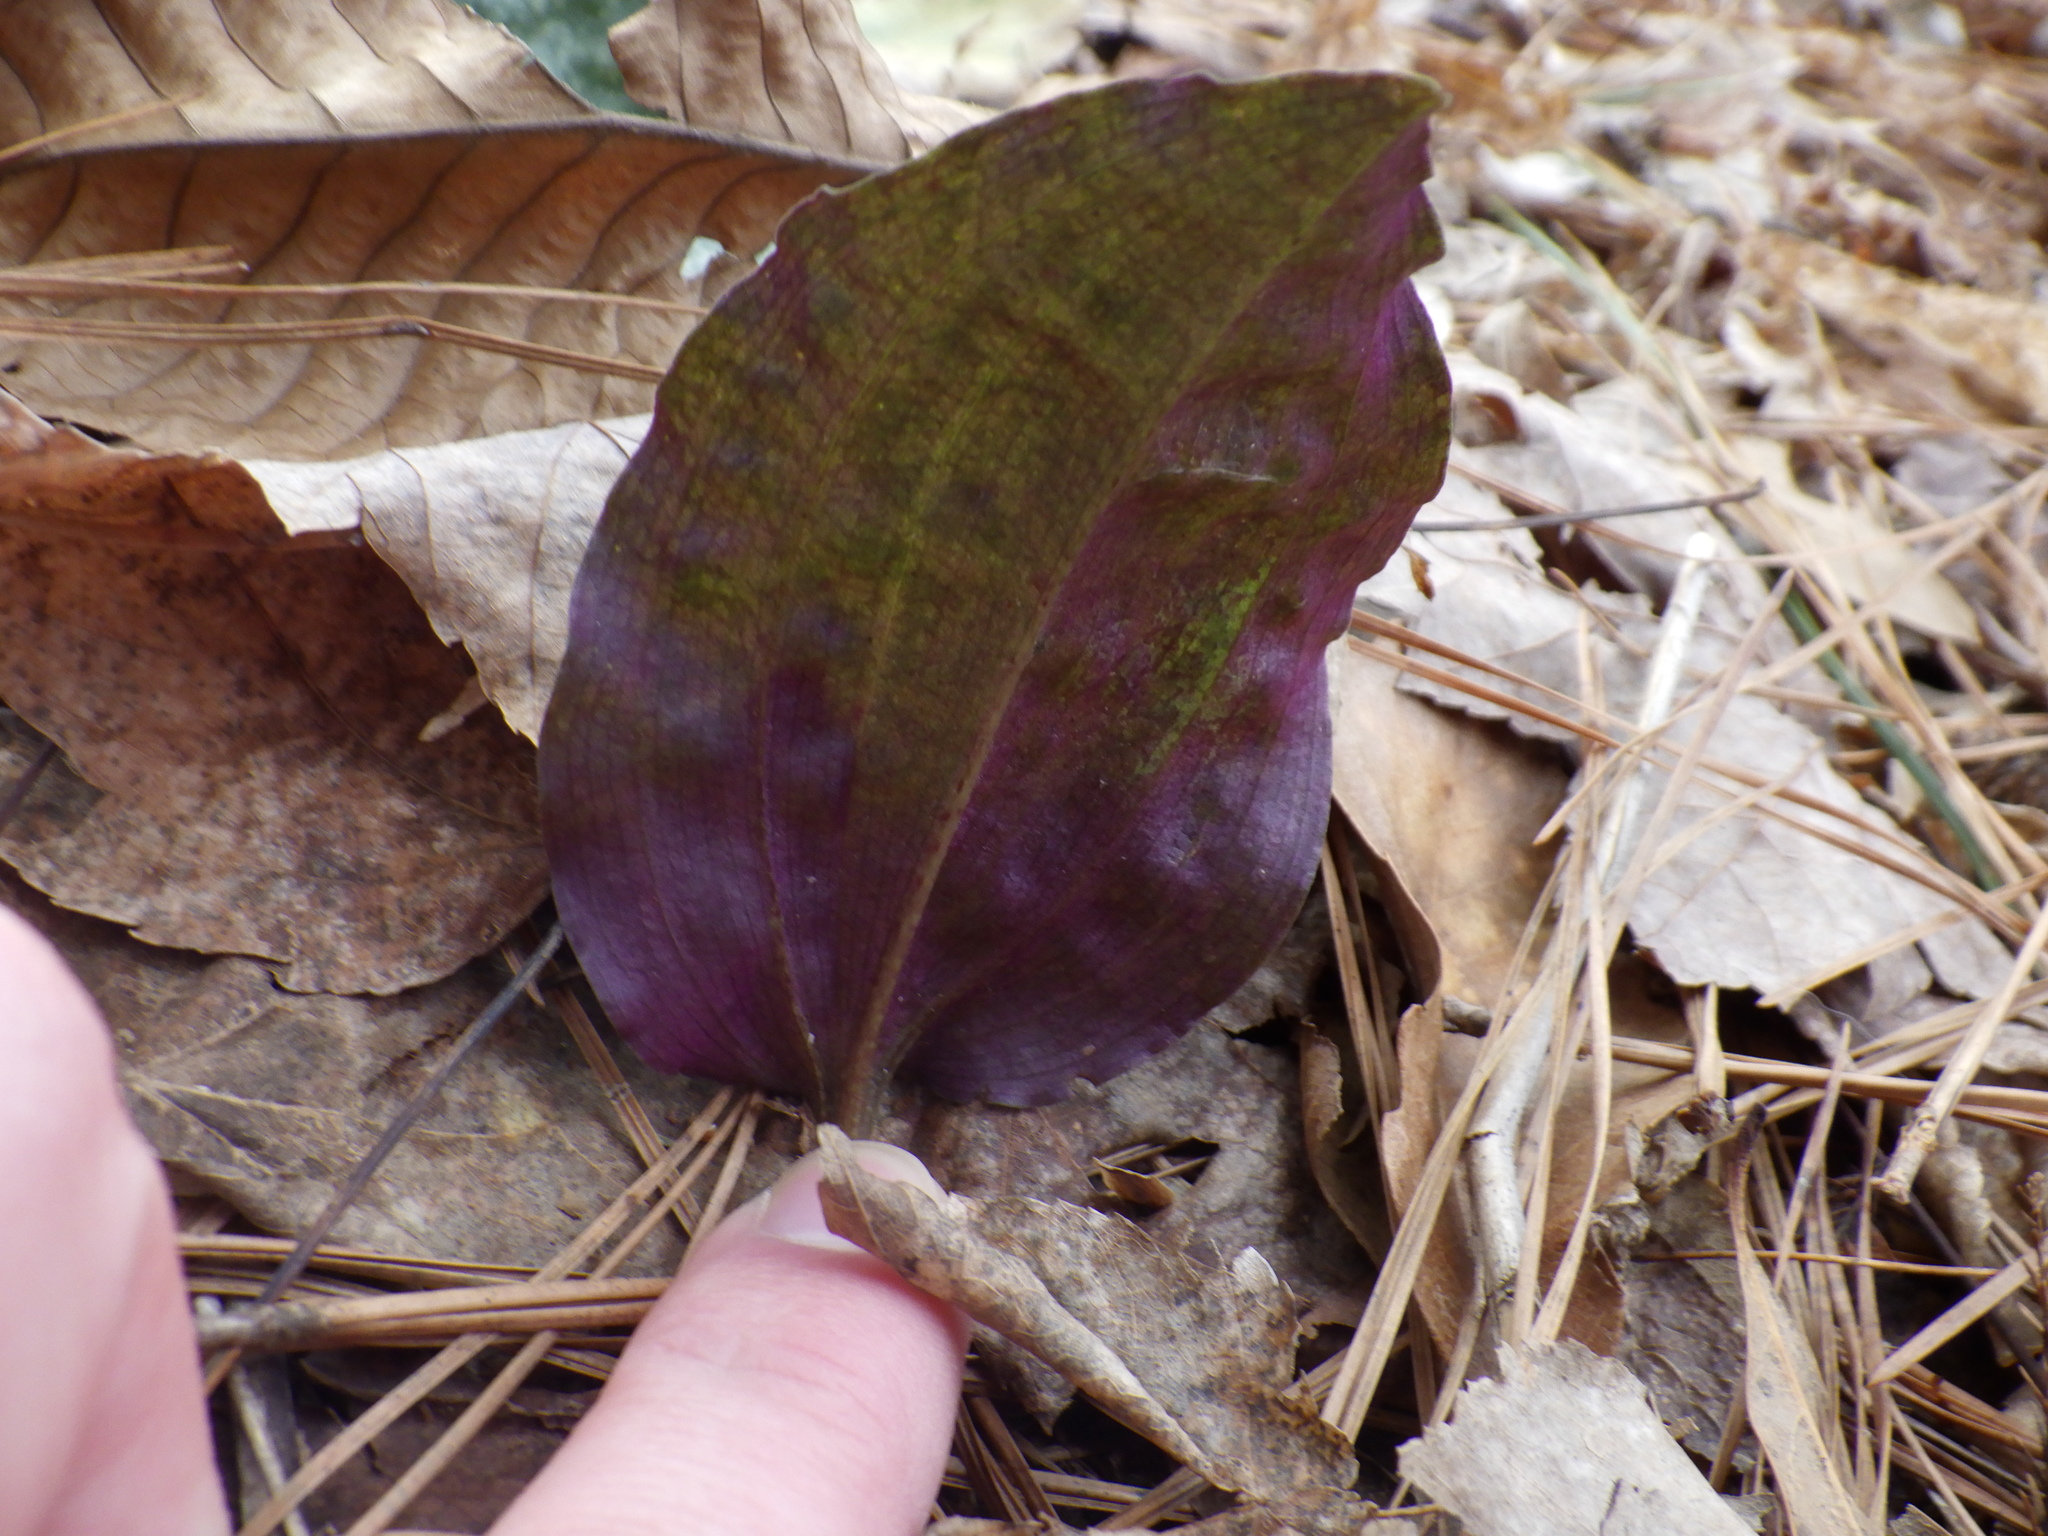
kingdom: Plantae
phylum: Tracheophyta
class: Liliopsida
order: Asparagales
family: Orchidaceae
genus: Tipularia
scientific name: Tipularia discolor
